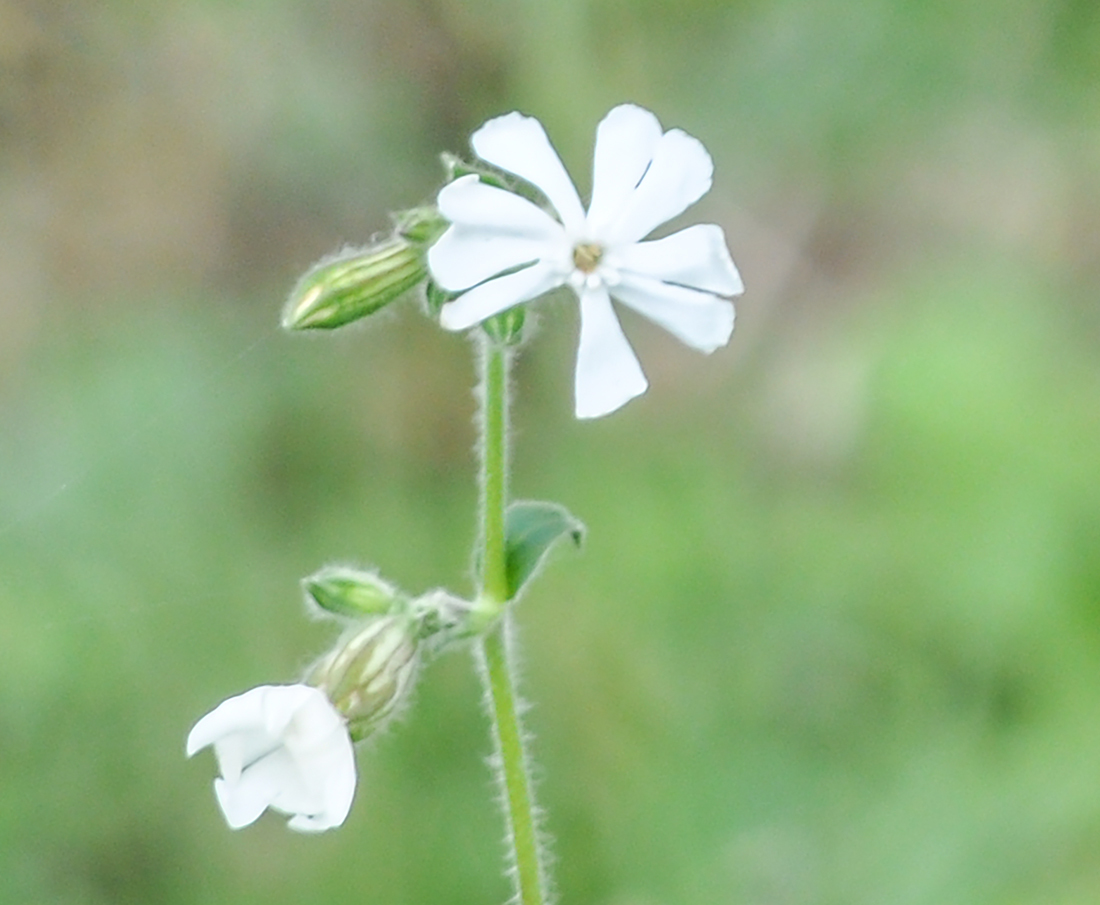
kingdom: Plantae
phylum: Tracheophyta
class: Magnoliopsida
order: Caryophyllales
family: Caryophyllaceae
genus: Silene
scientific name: Silene latifolia
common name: White campion
